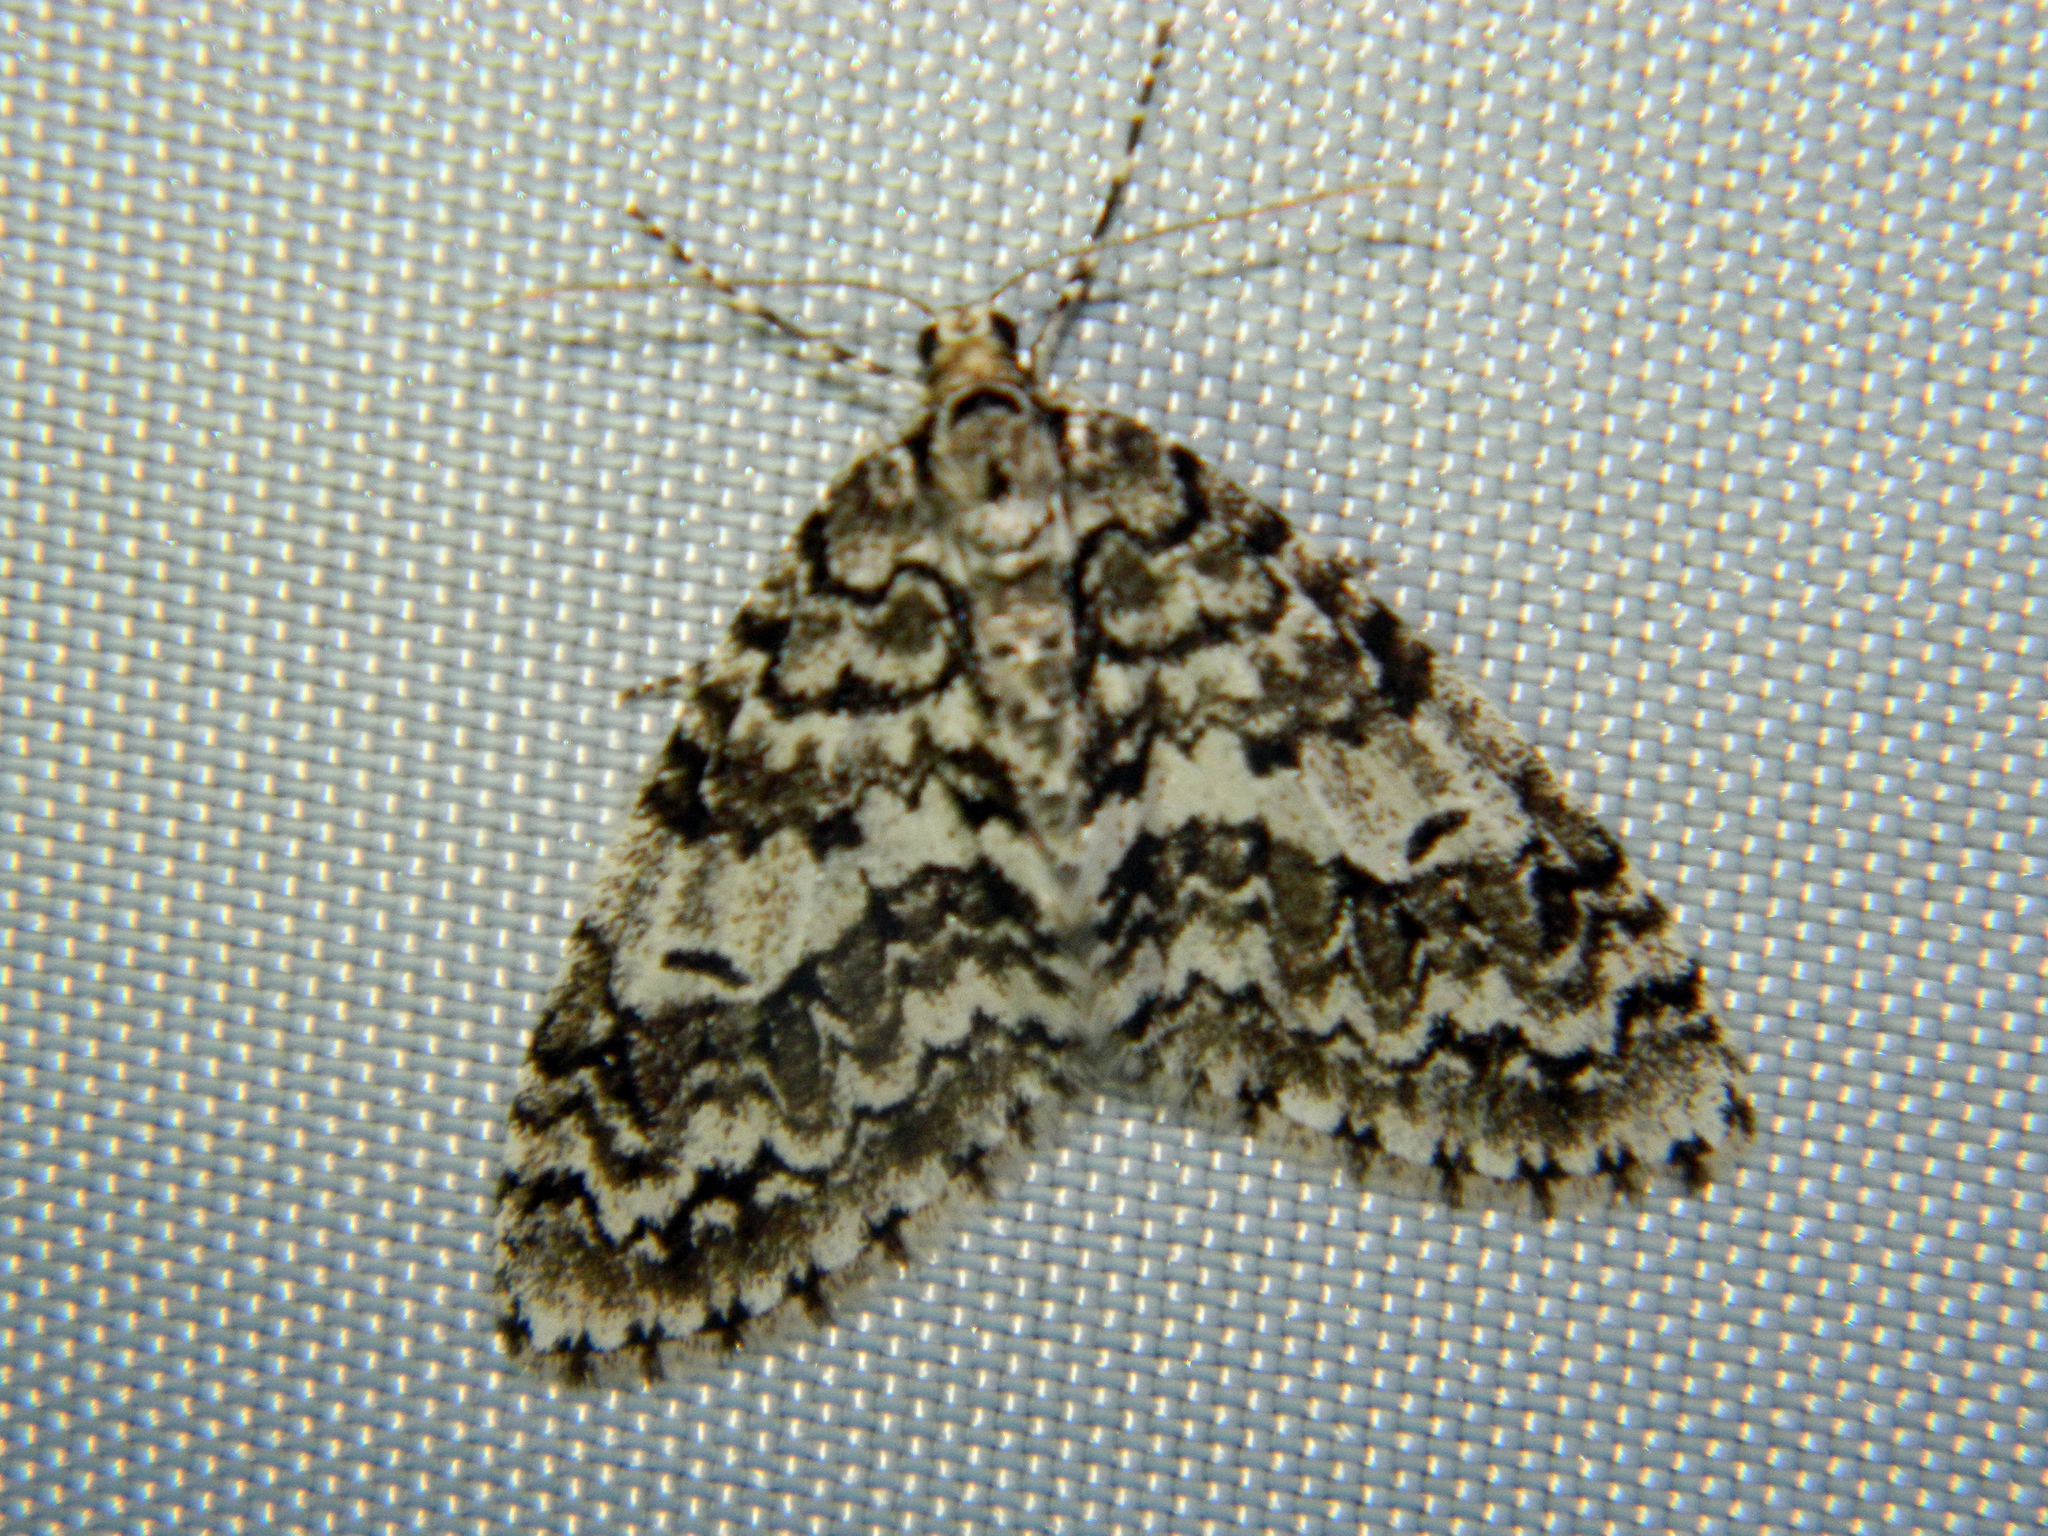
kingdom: Animalia
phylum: Arthropoda
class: Insecta
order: Lepidoptera
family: Geometridae
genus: Cladara
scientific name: Cladara atroliturata
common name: Scribbler
